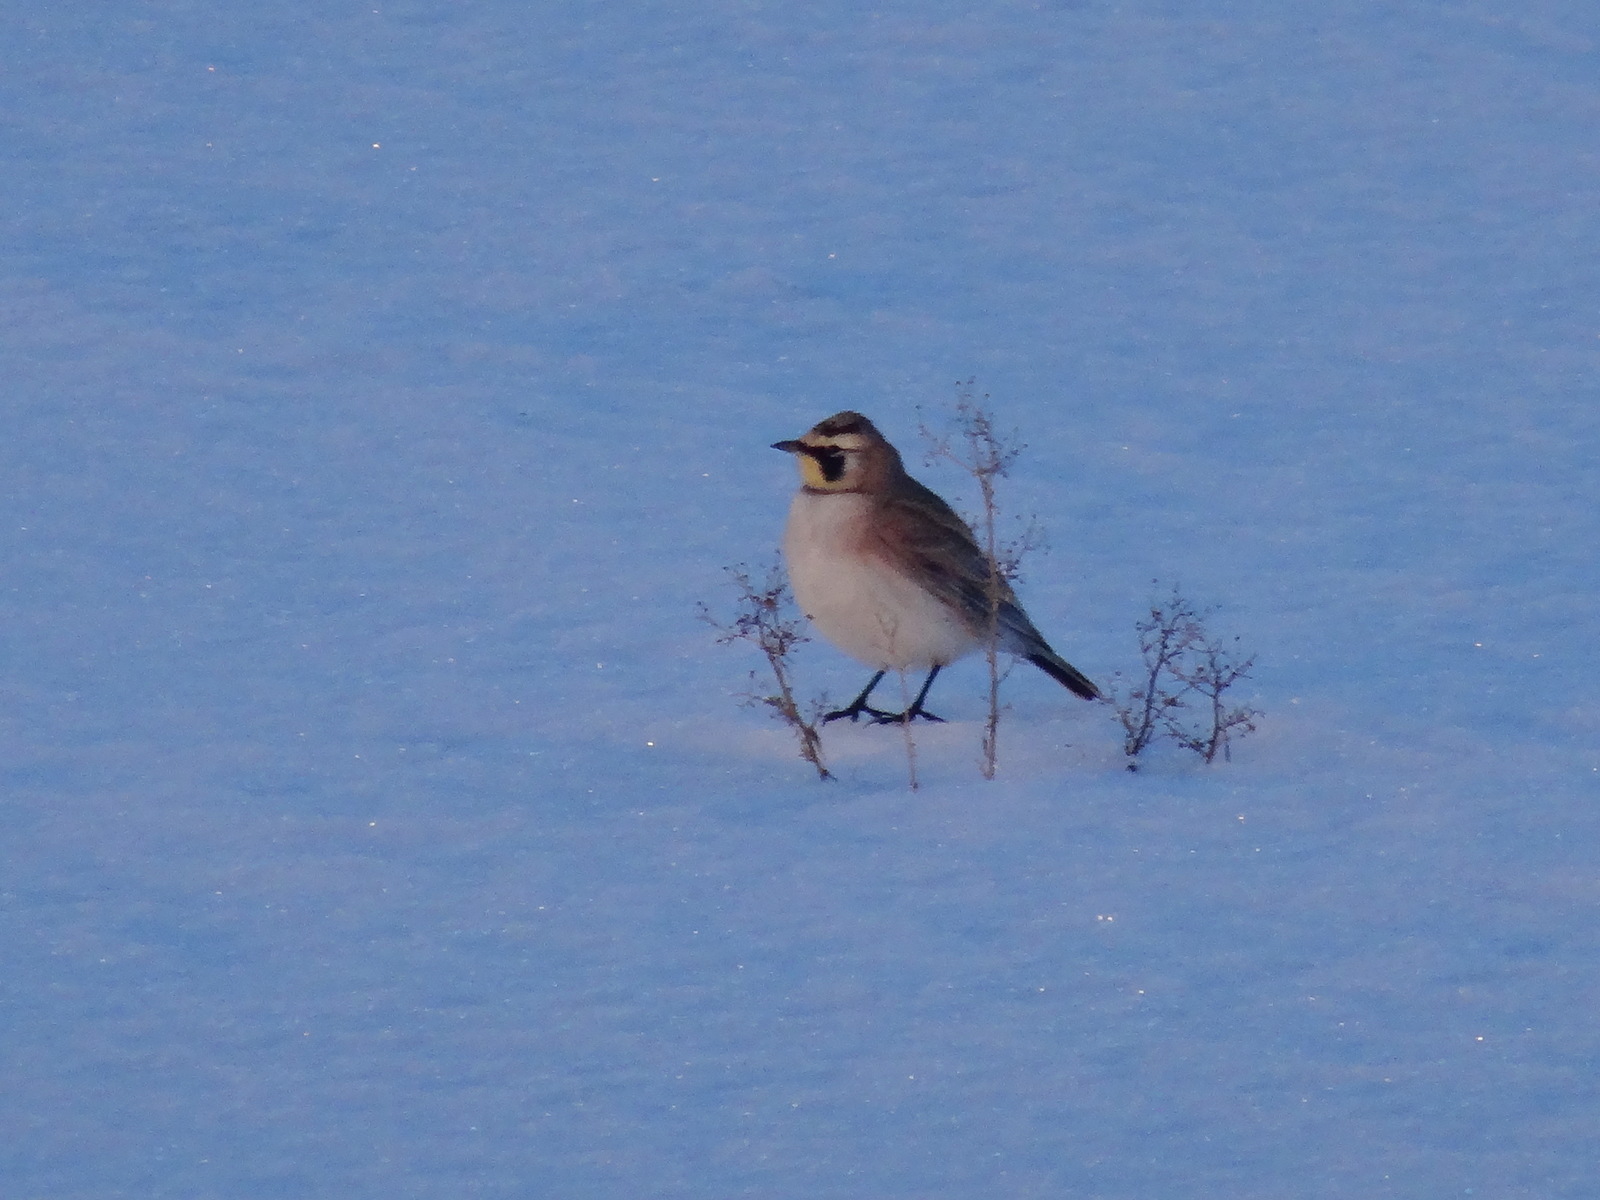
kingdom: Animalia
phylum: Chordata
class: Aves
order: Passeriformes
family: Alaudidae
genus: Eremophila
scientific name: Eremophila alpestris
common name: Horned lark
